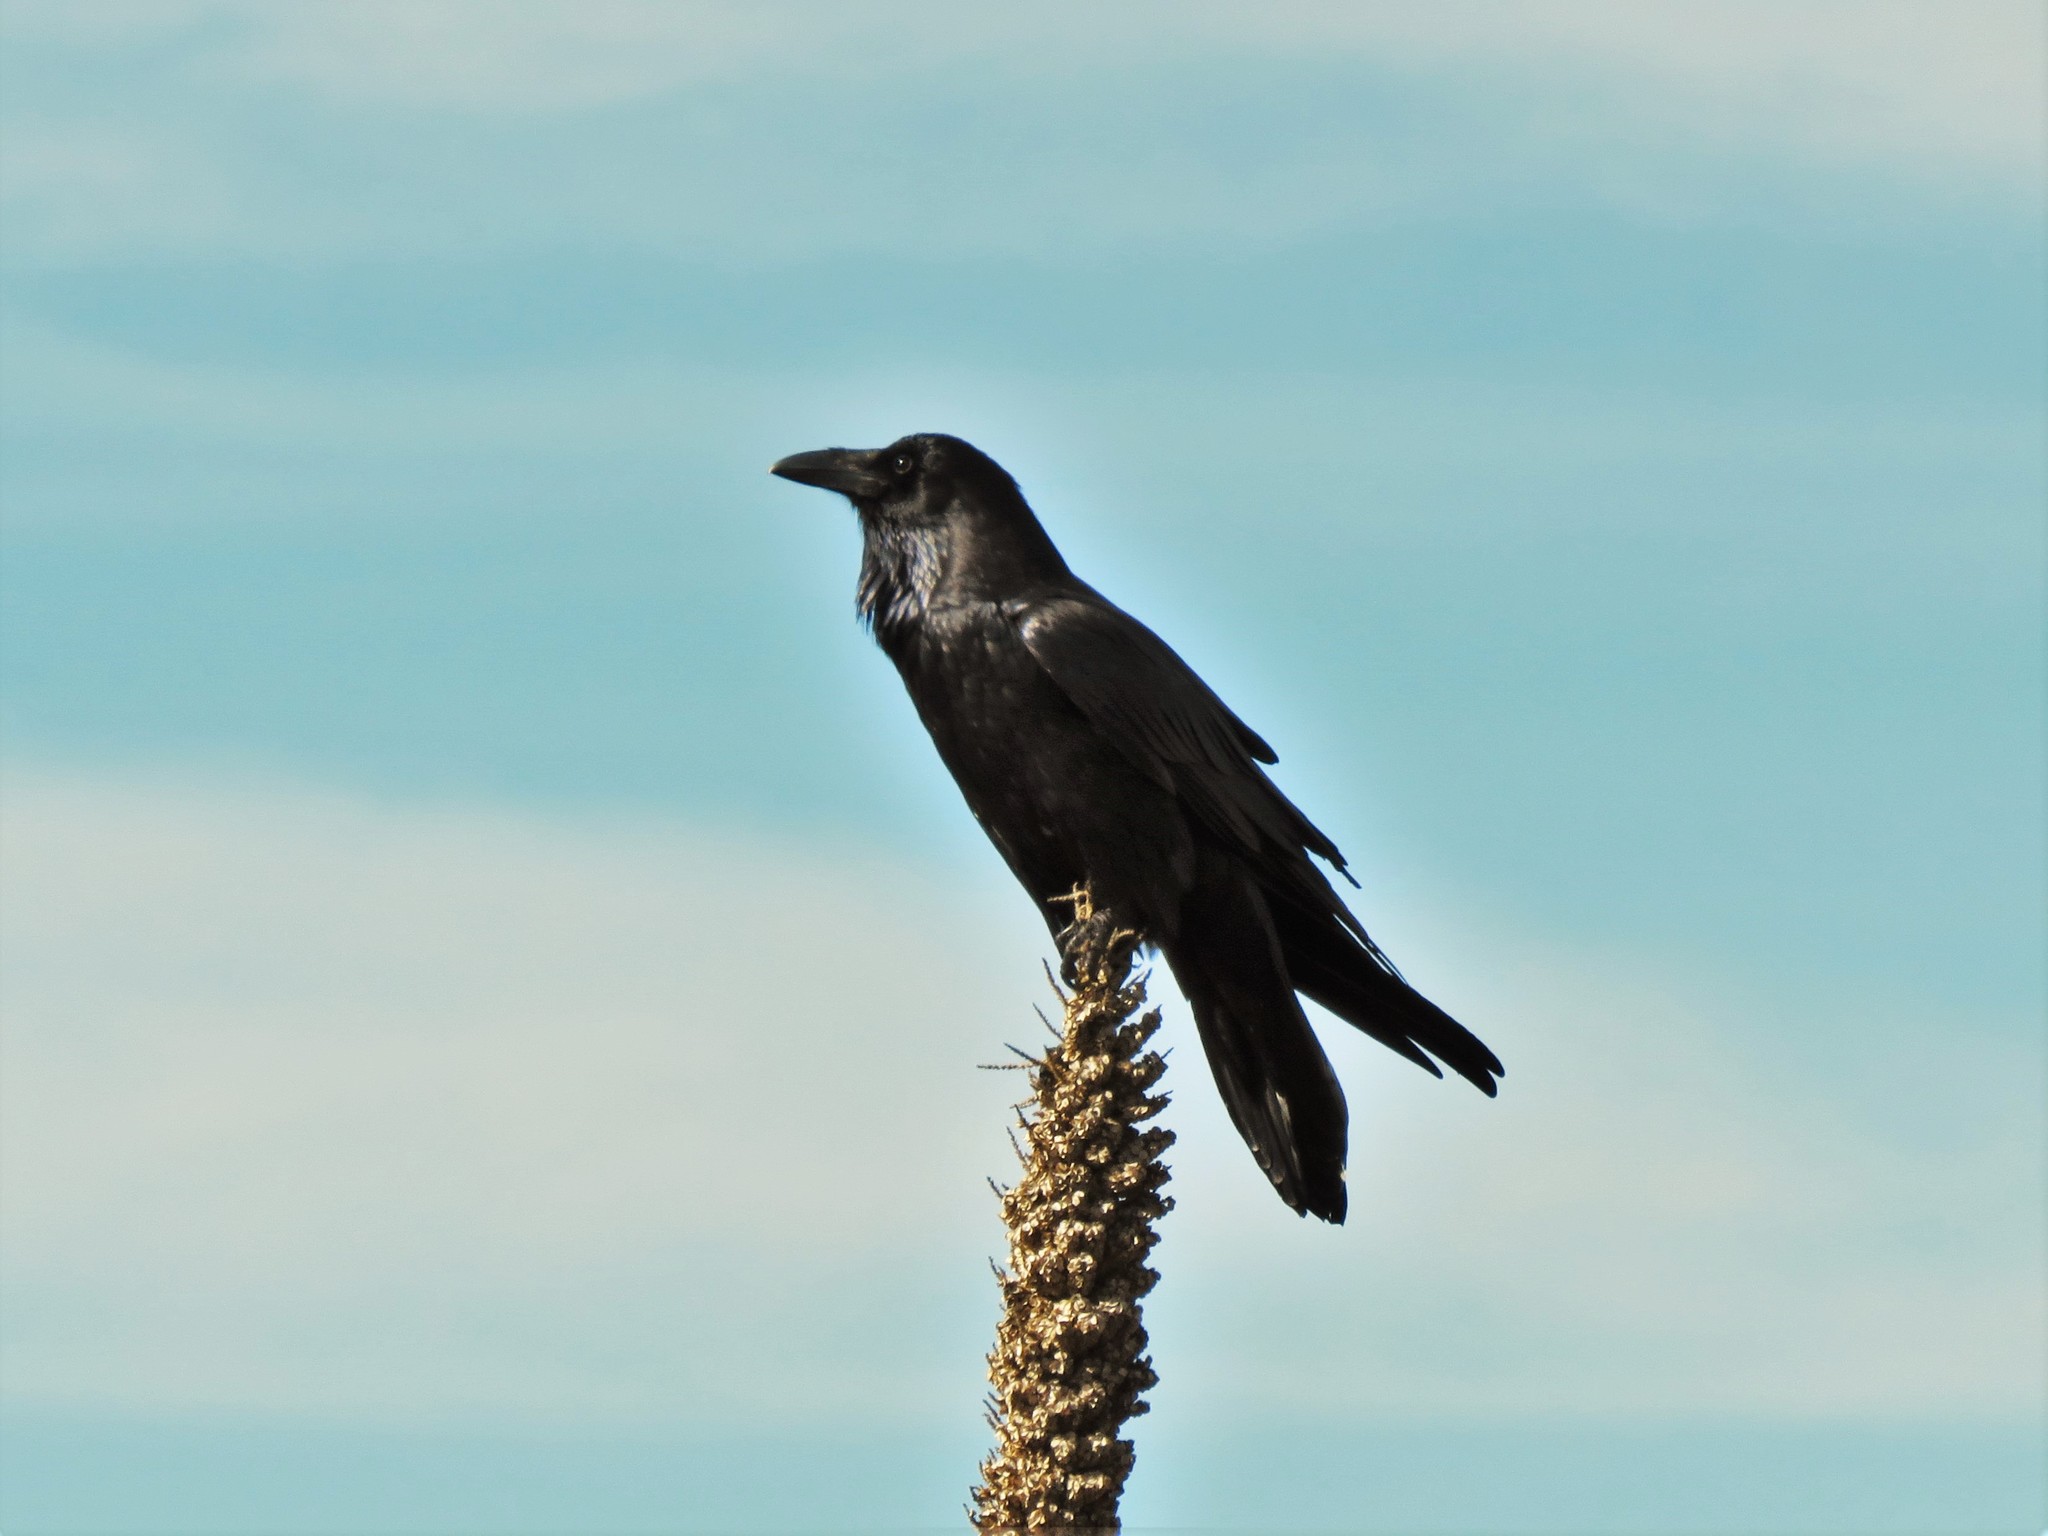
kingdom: Animalia
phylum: Chordata
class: Aves
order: Passeriformes
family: Corvidae
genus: Corvus
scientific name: Corvus corax
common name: Common raven
